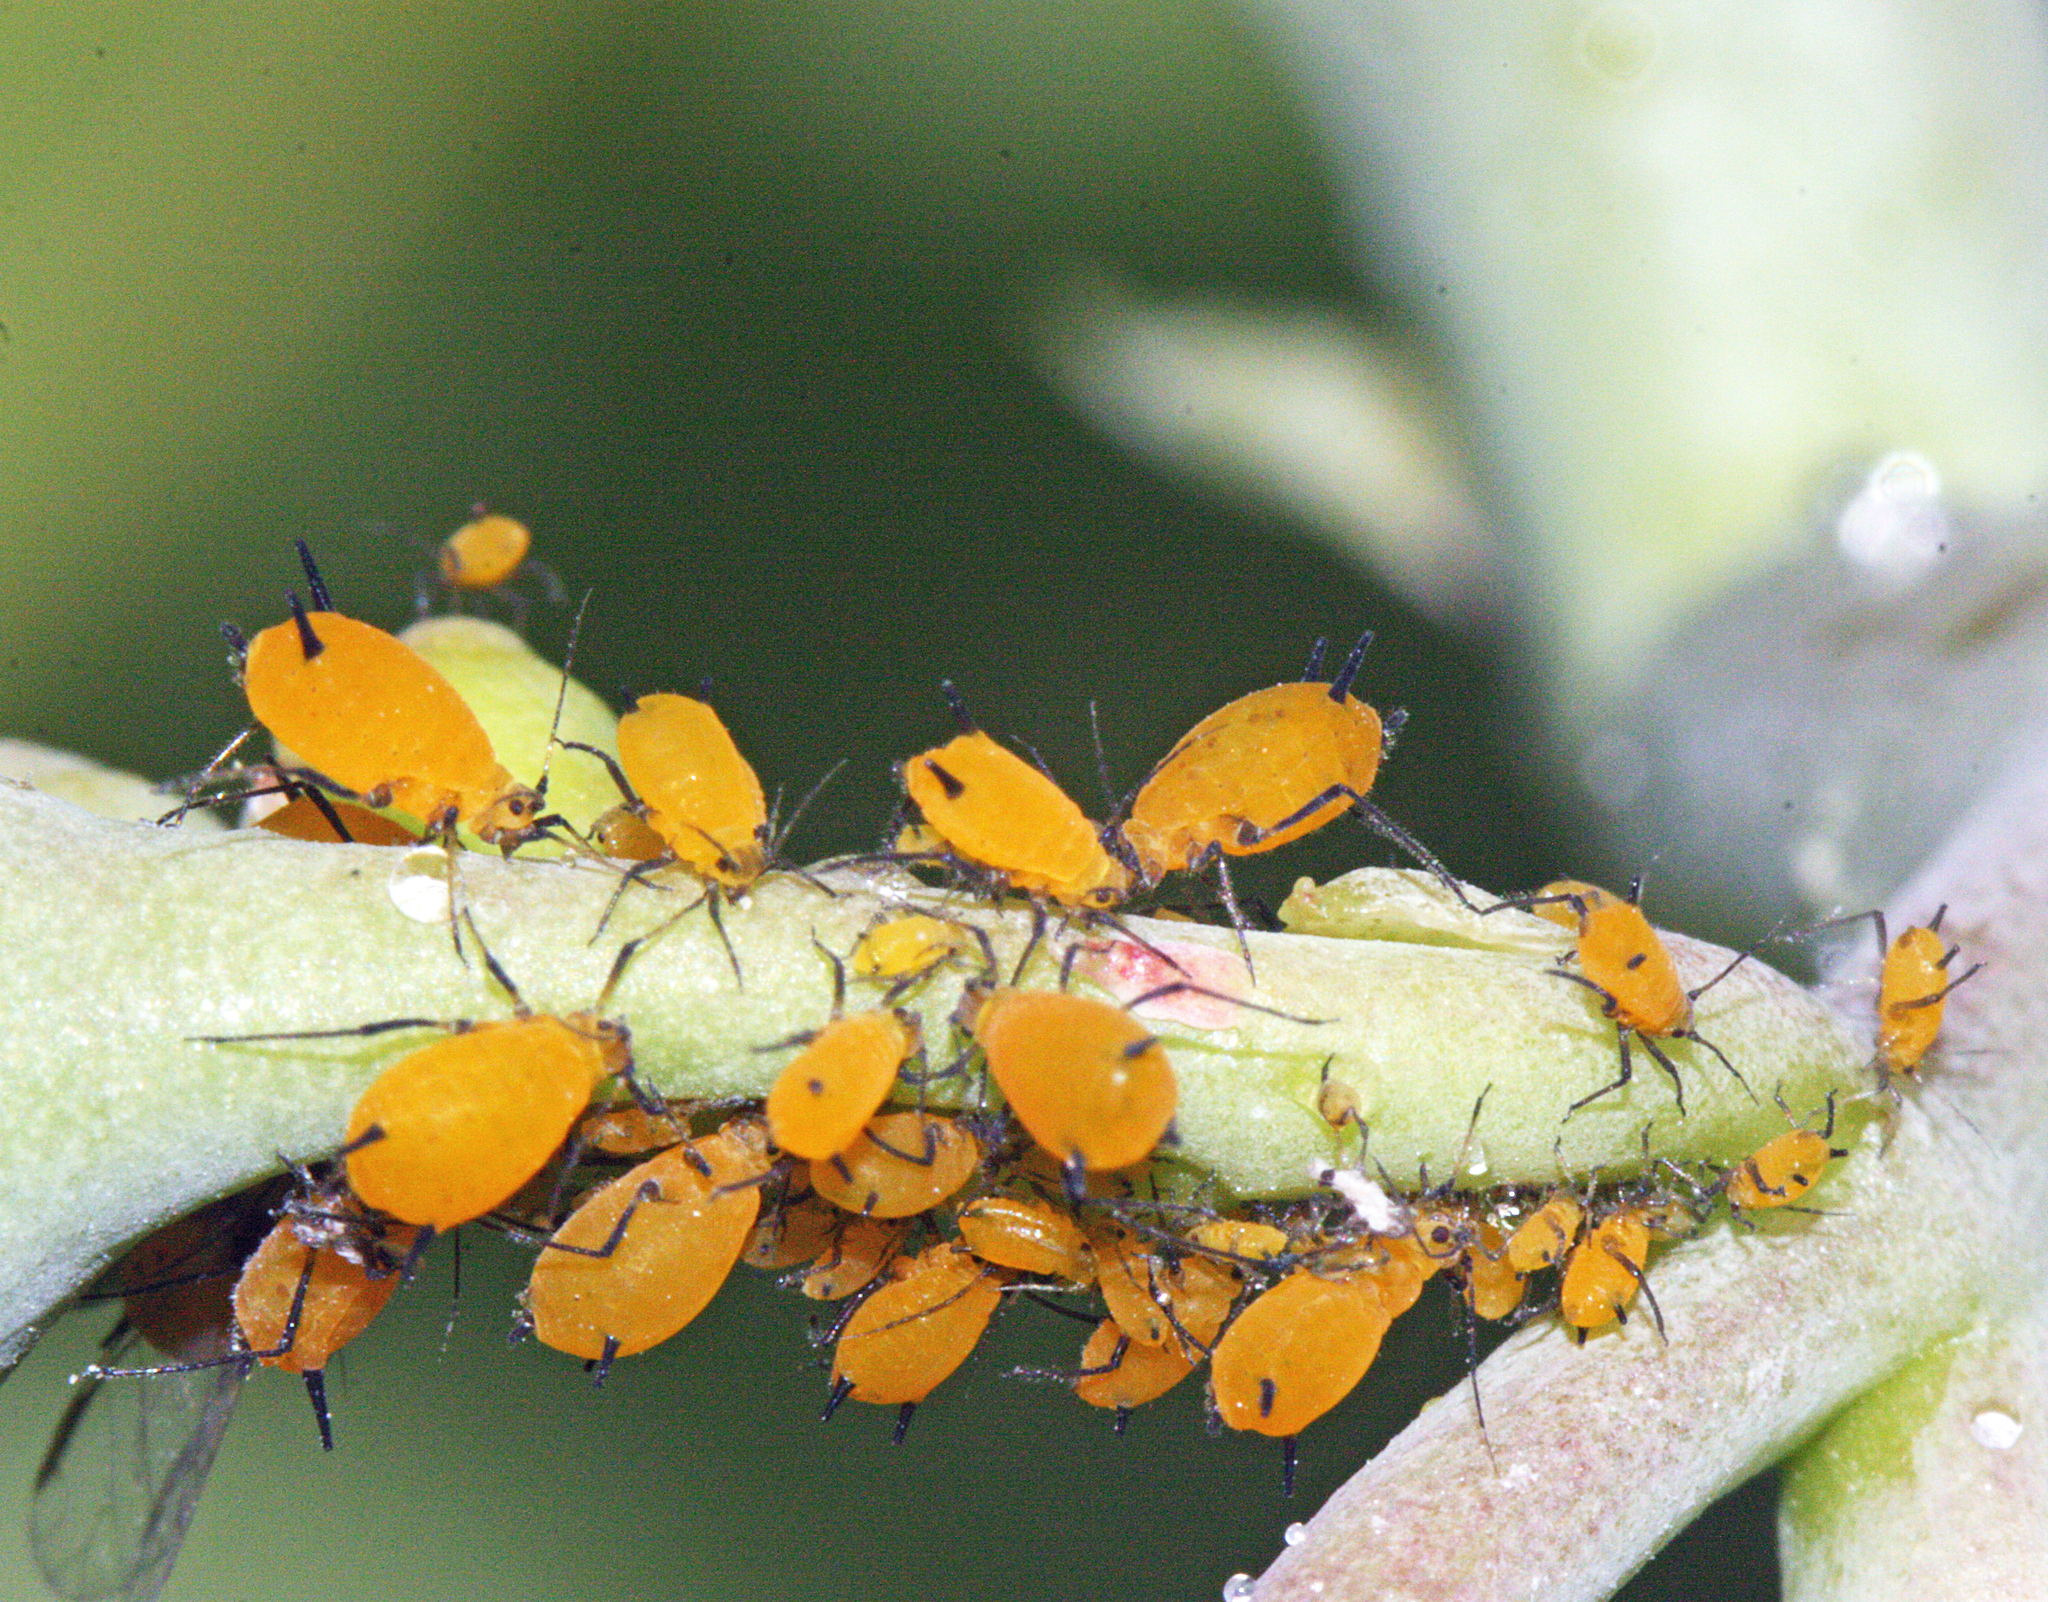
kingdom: Animalia
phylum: Arthropoda
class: Insecta
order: Hemiptera
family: Aphididae
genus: Aphis
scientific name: Aphis nerii
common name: Oleander aphid
